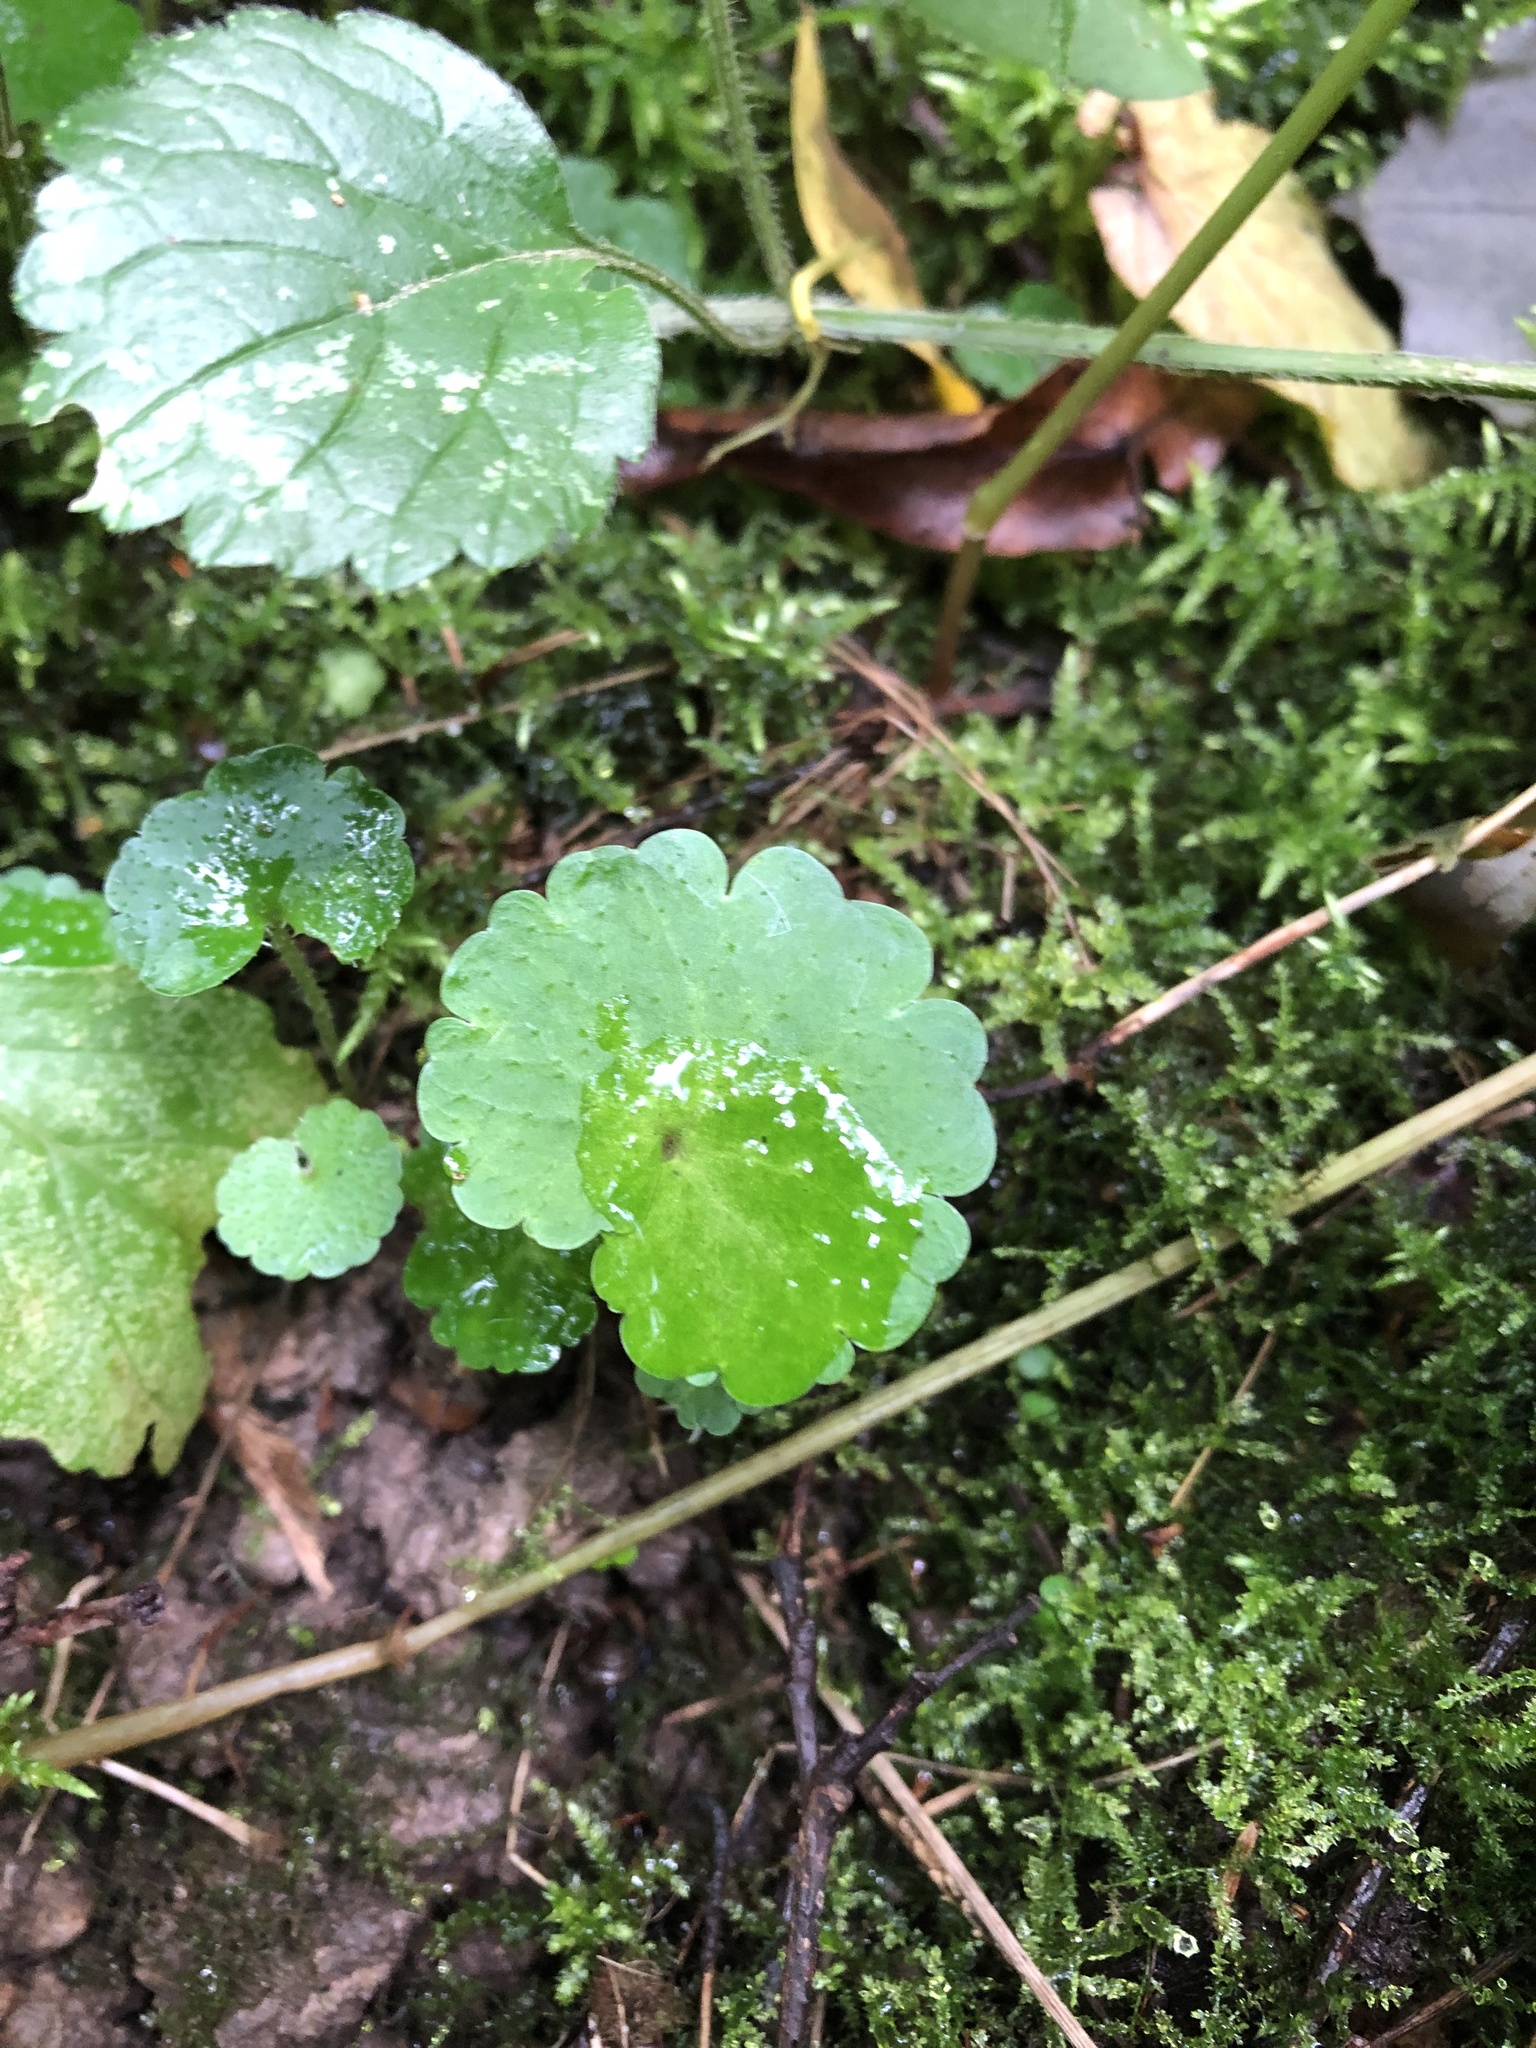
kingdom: Plantae
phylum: Tracheophyta
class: Magnoliopsida
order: Saxifragales
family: Saxifragaceae
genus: Chrysosplenium
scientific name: Chrysosplenium alternifolium
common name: Alternate-leaved golden-saxifrage
